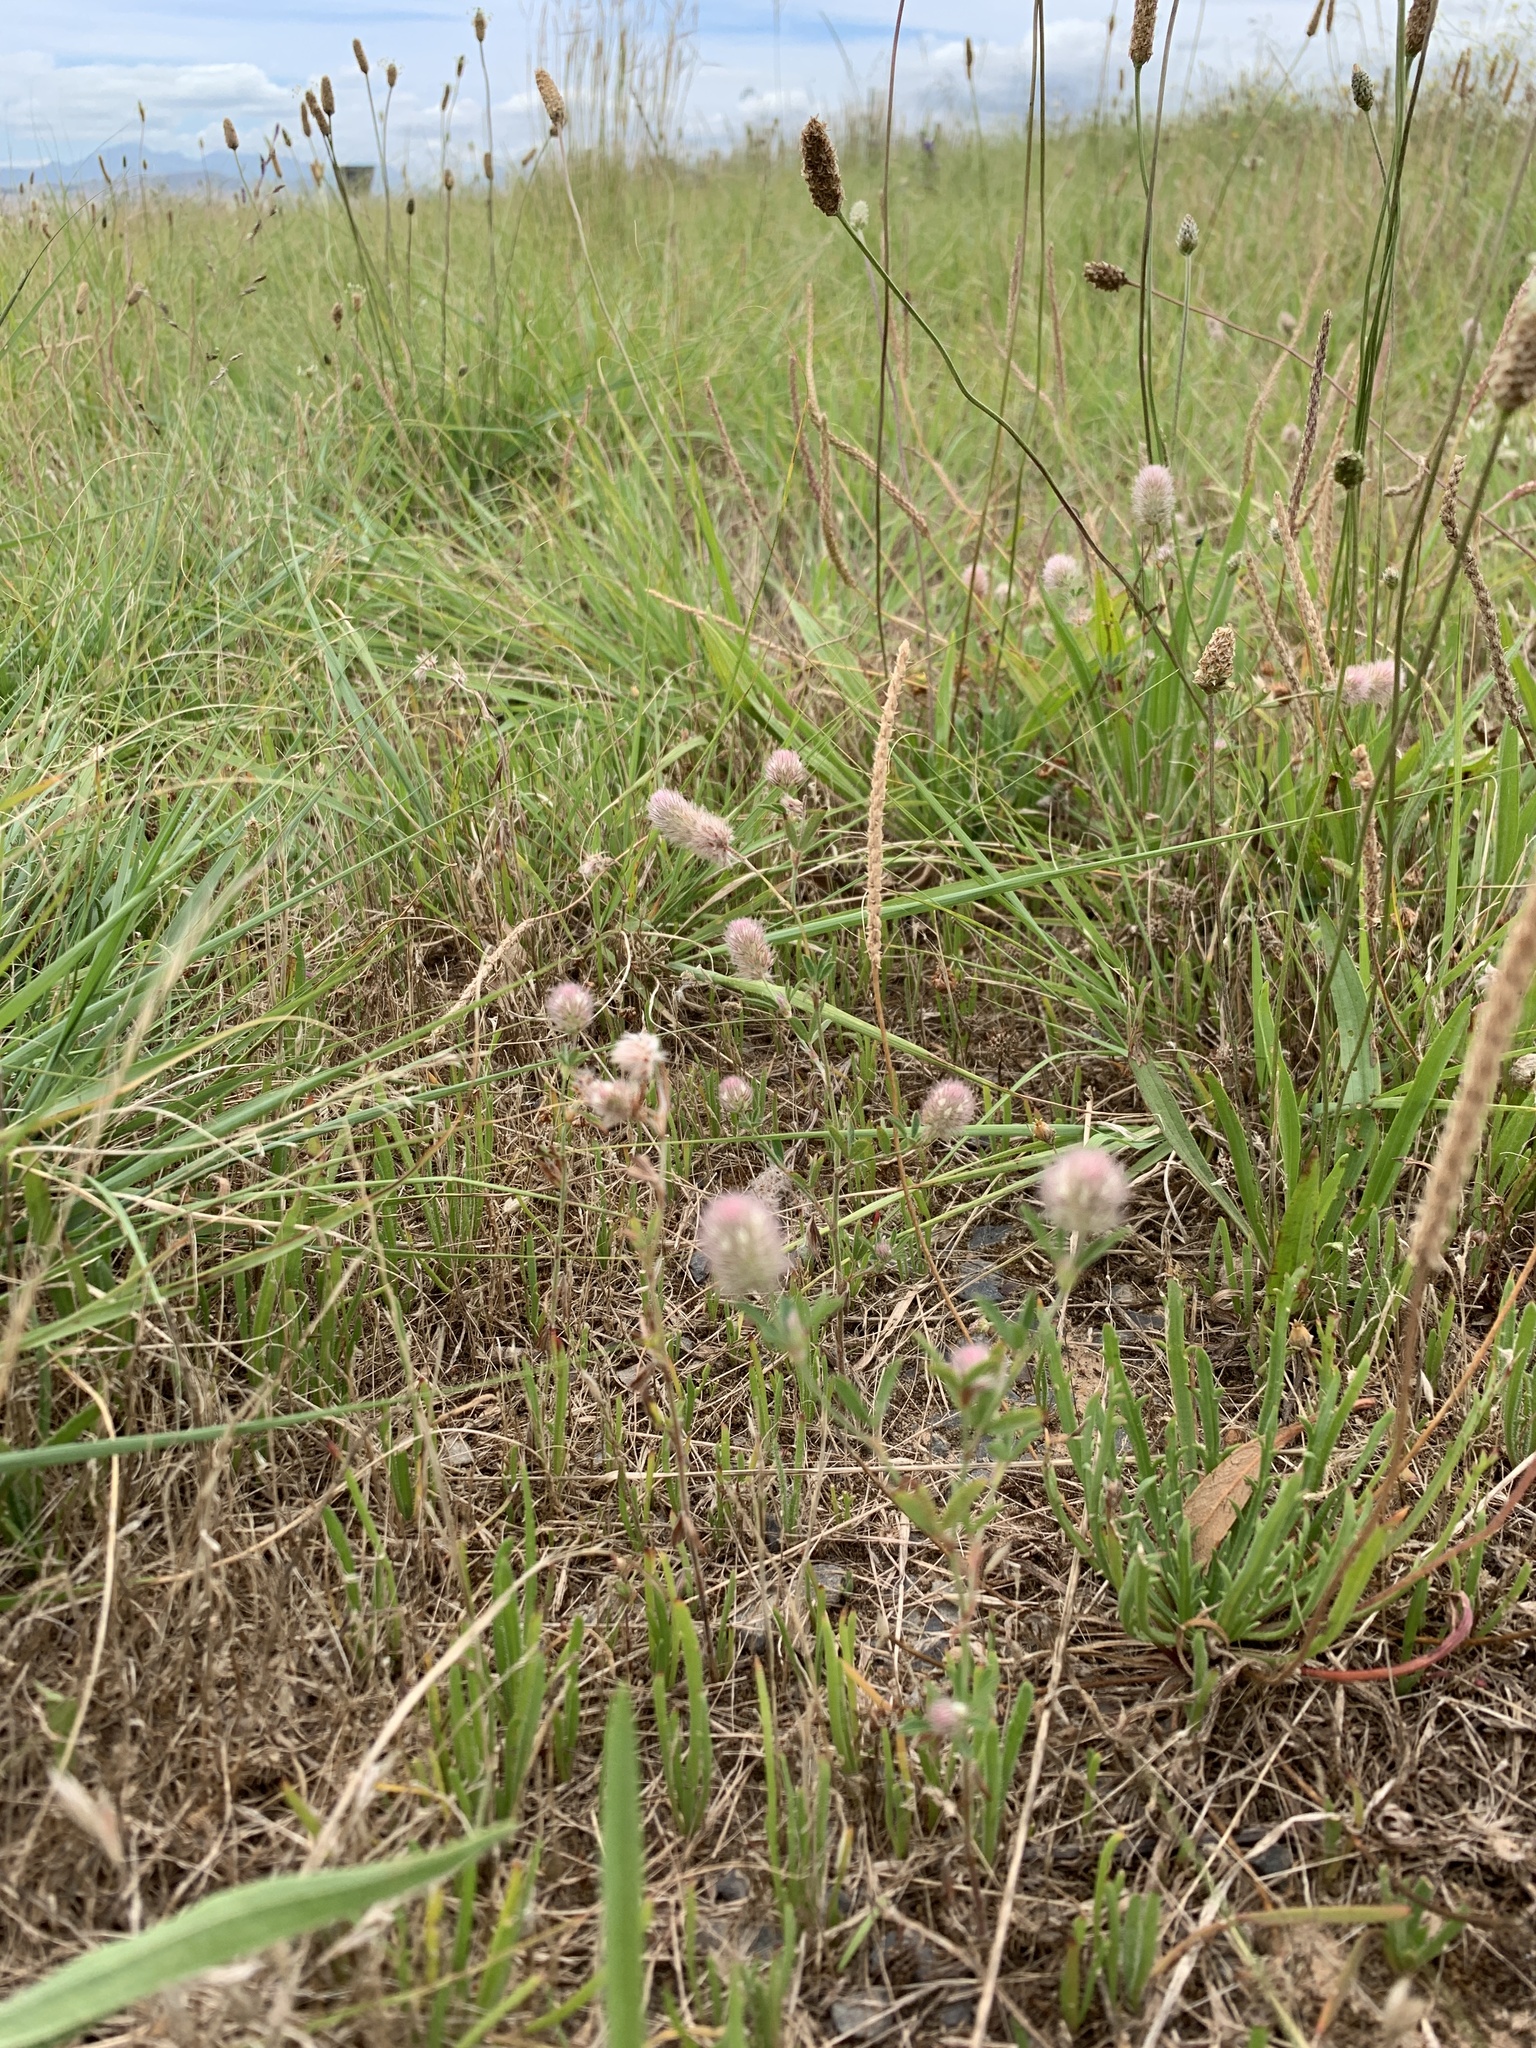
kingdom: Plantae
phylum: Tracheophyta
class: Magnoliopsida
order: Fabales
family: Fabaceae
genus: Trifolium
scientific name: Trifolium arvense
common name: Hare's-foot clover
